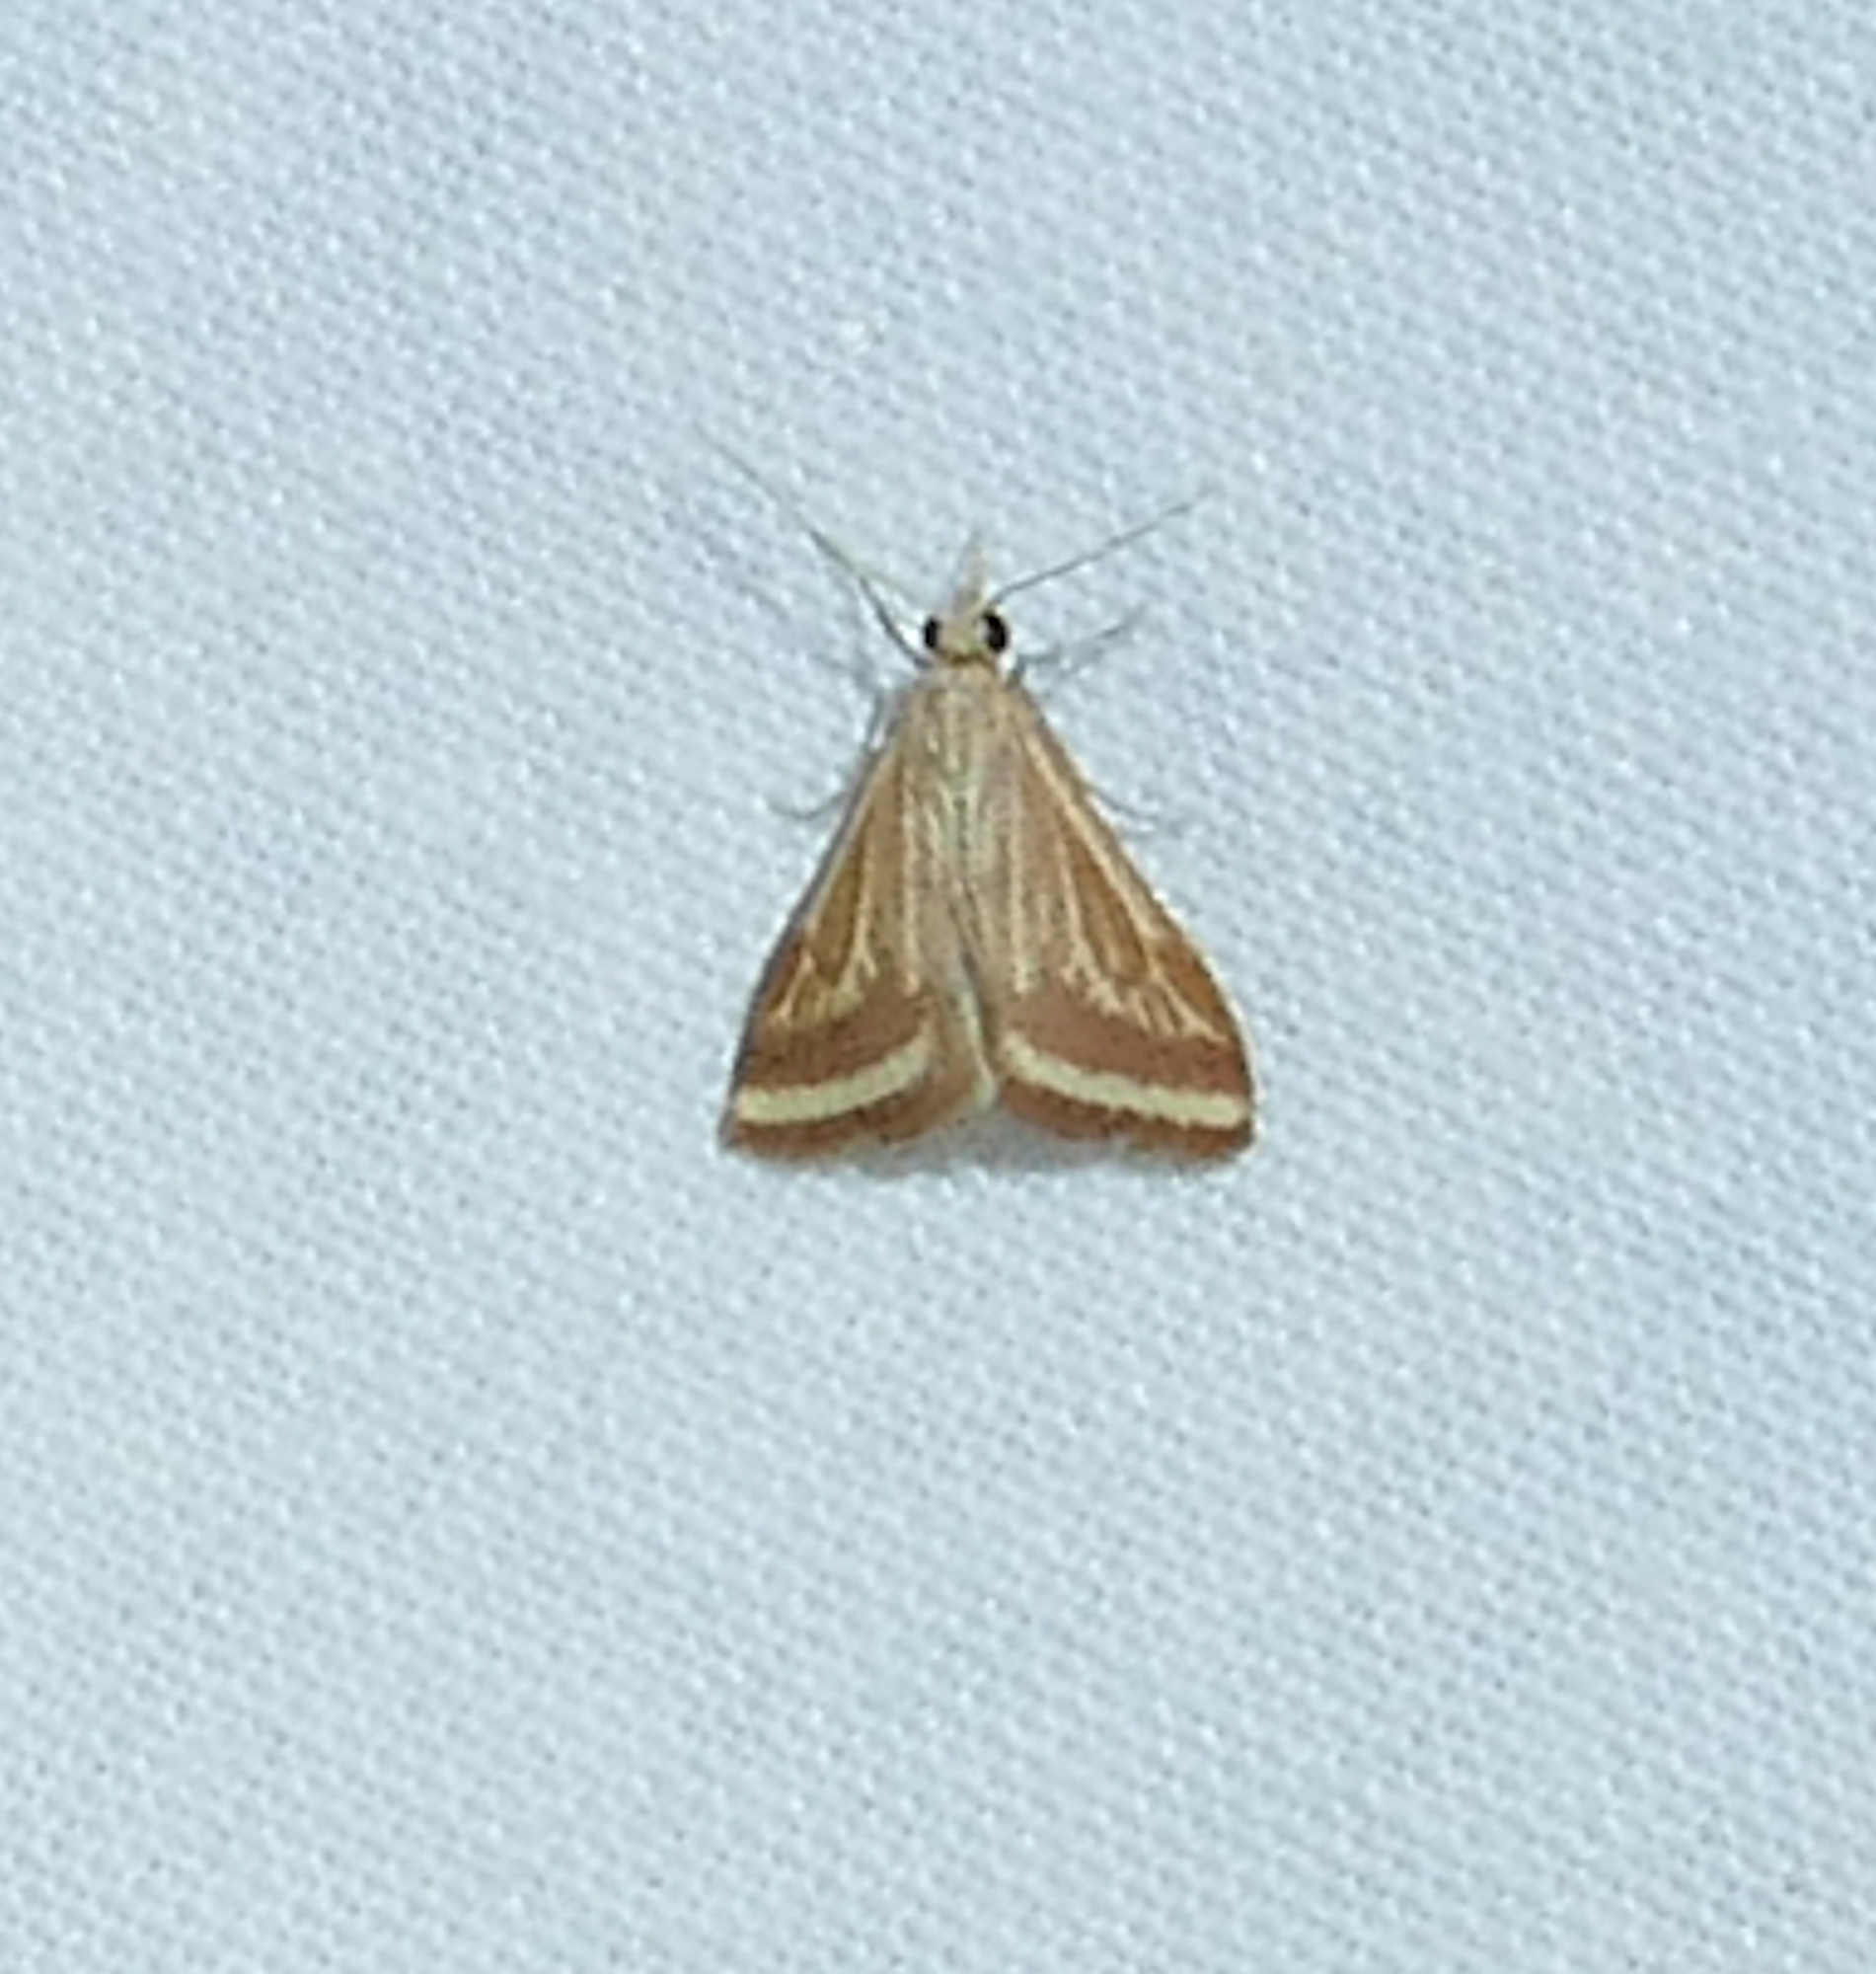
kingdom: Animalia
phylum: Arthropoda
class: Insecta
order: Lepidoptera
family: Crambidae
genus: Microtheoris
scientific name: Microtheoris ophionalis
